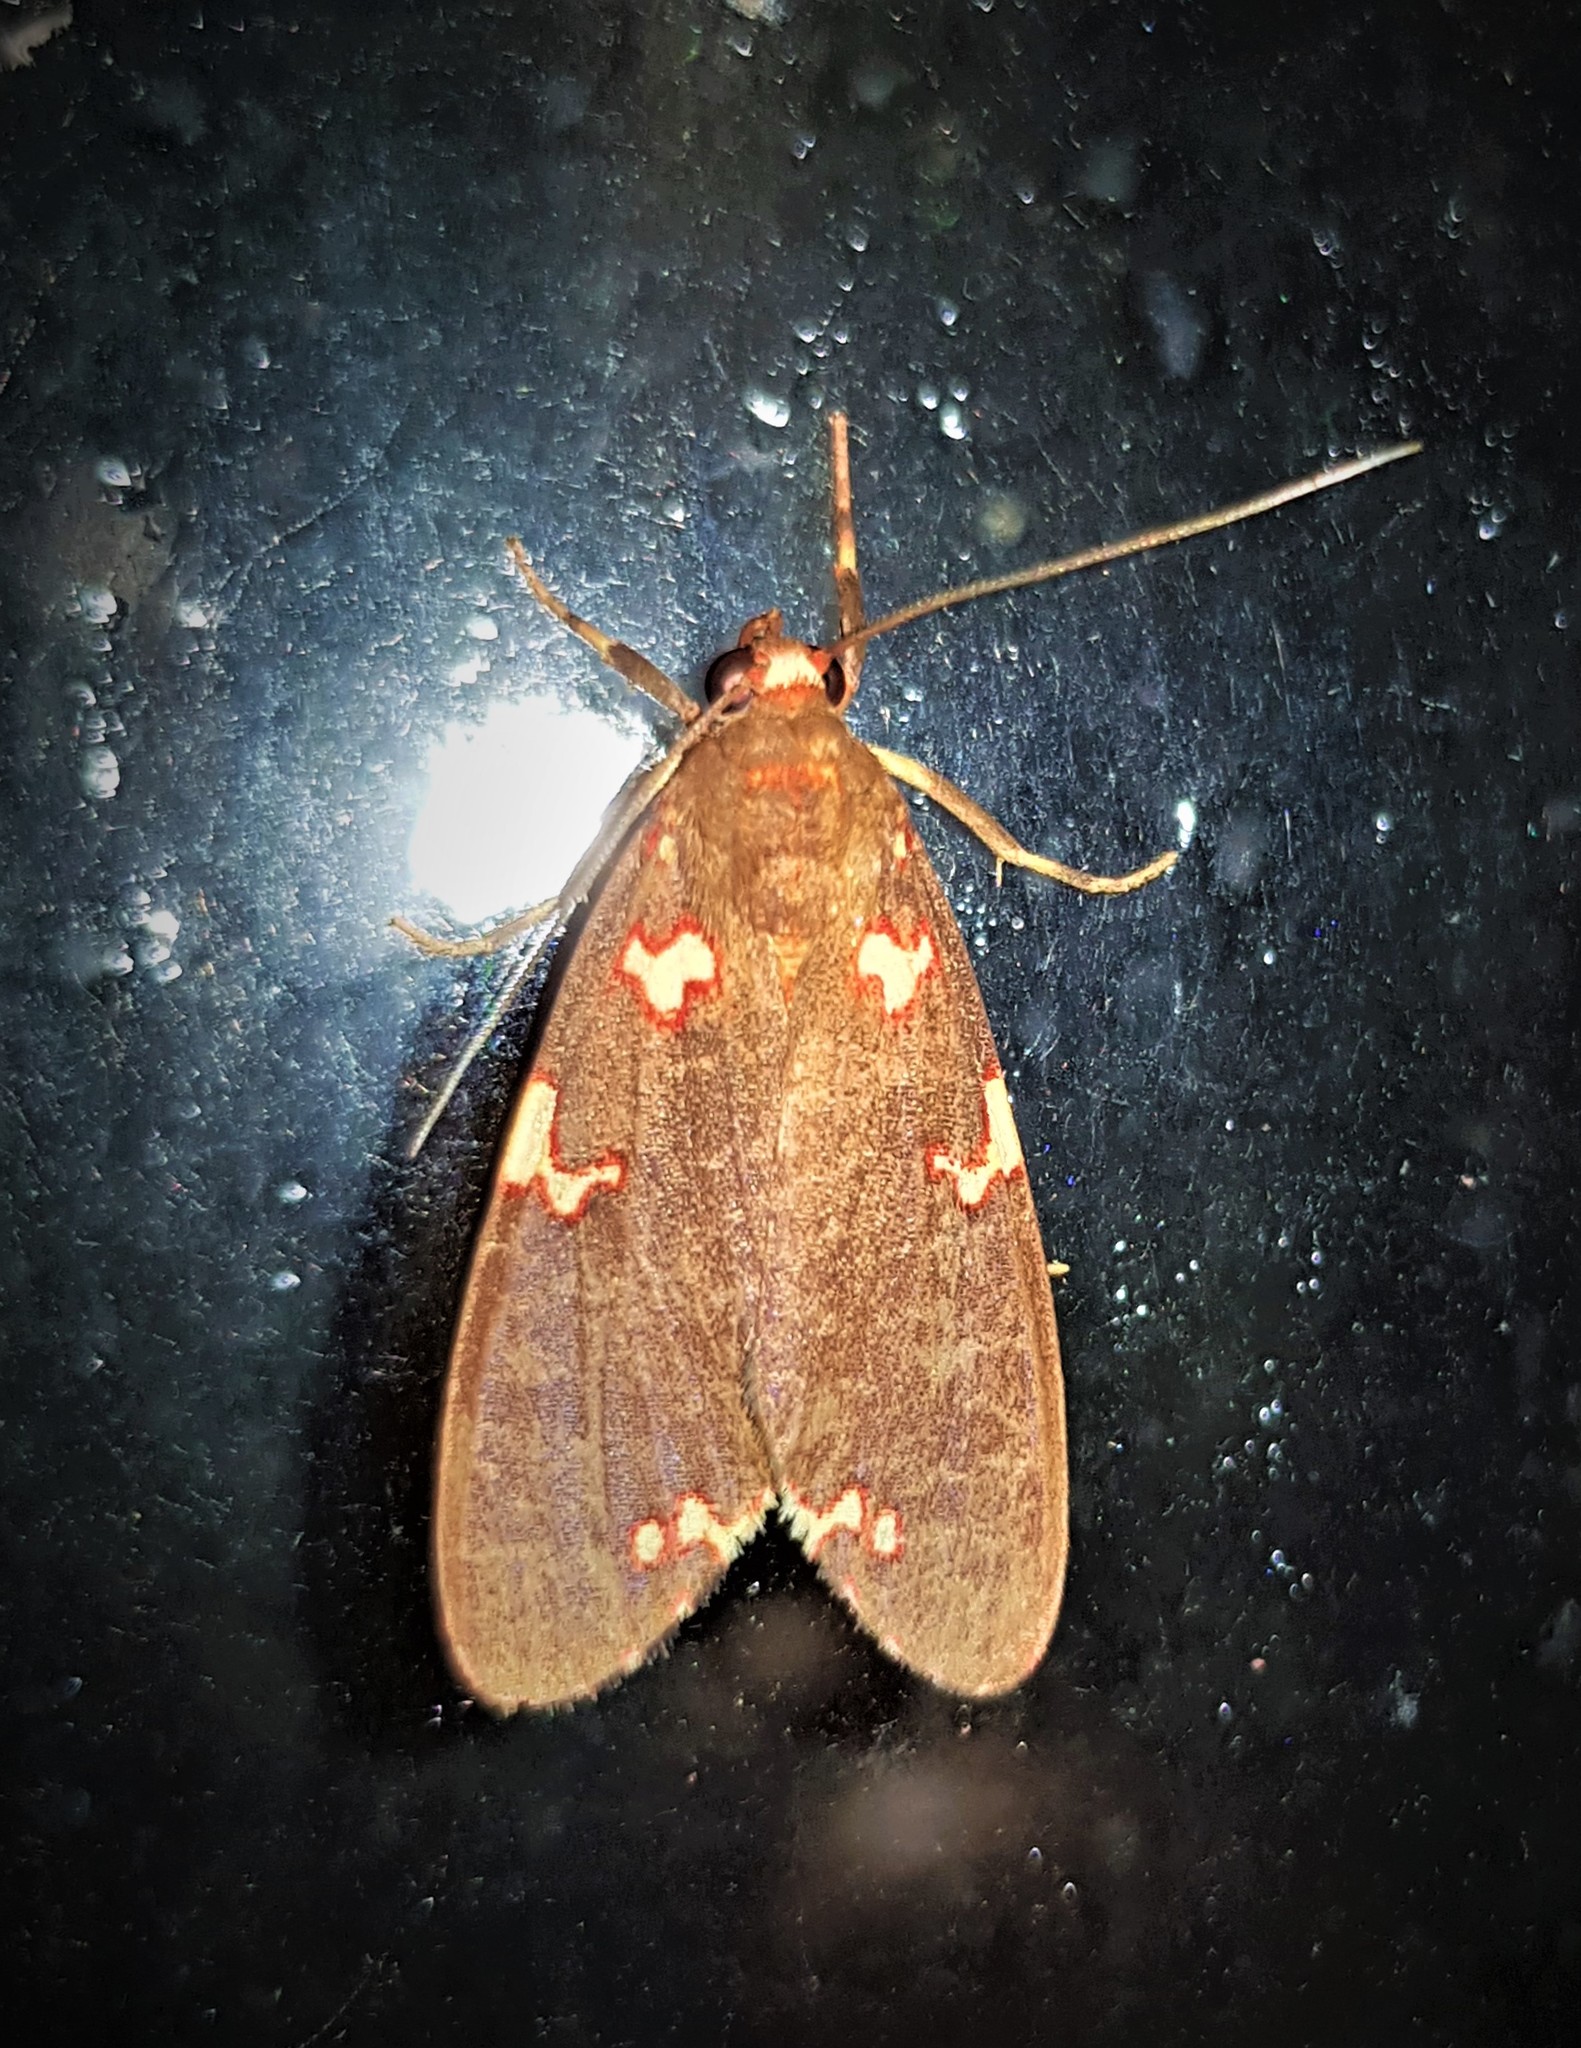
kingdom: Animalia
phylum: Arthropoda
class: Insecta
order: Lepidoptera
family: Erebidae
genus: Coiffaitarctia
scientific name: Coiffaitarctia steniptera
